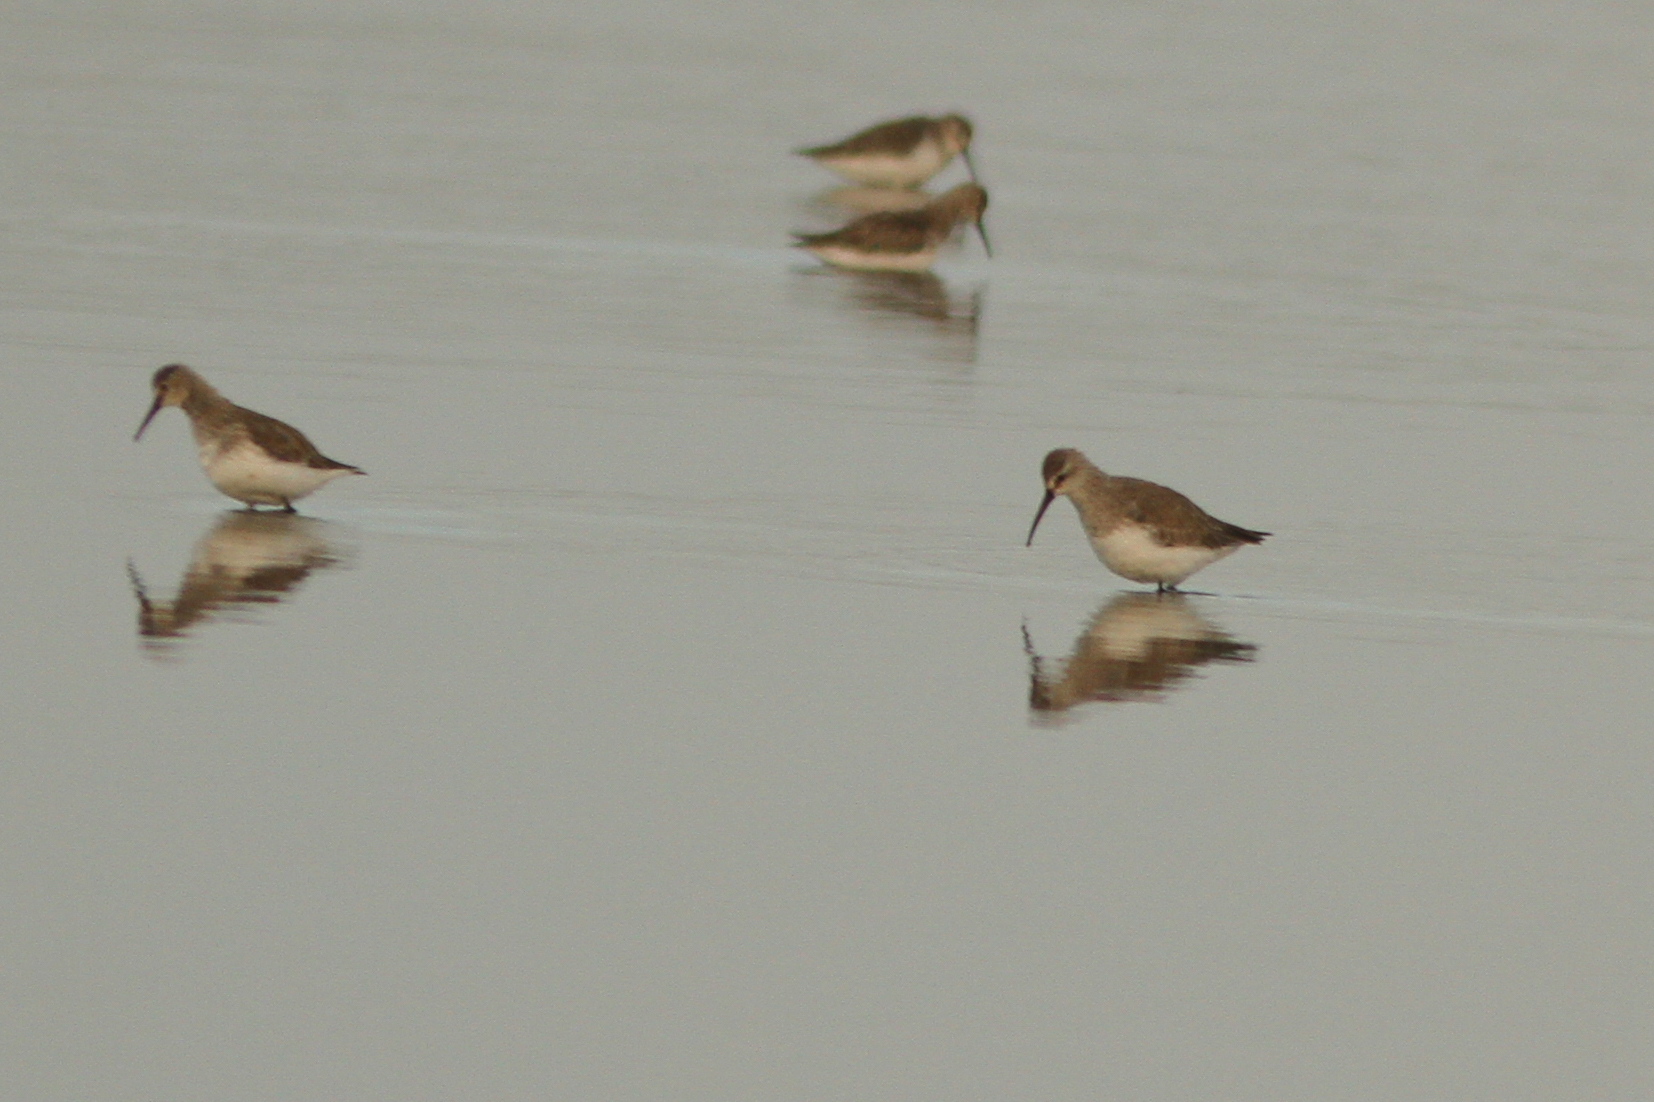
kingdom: Animalia
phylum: Chordata
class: Aves
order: Charadriiformes
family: Scolopacidae
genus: Calidris
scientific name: Calidris ferruginea
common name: Curlew sandpiper
